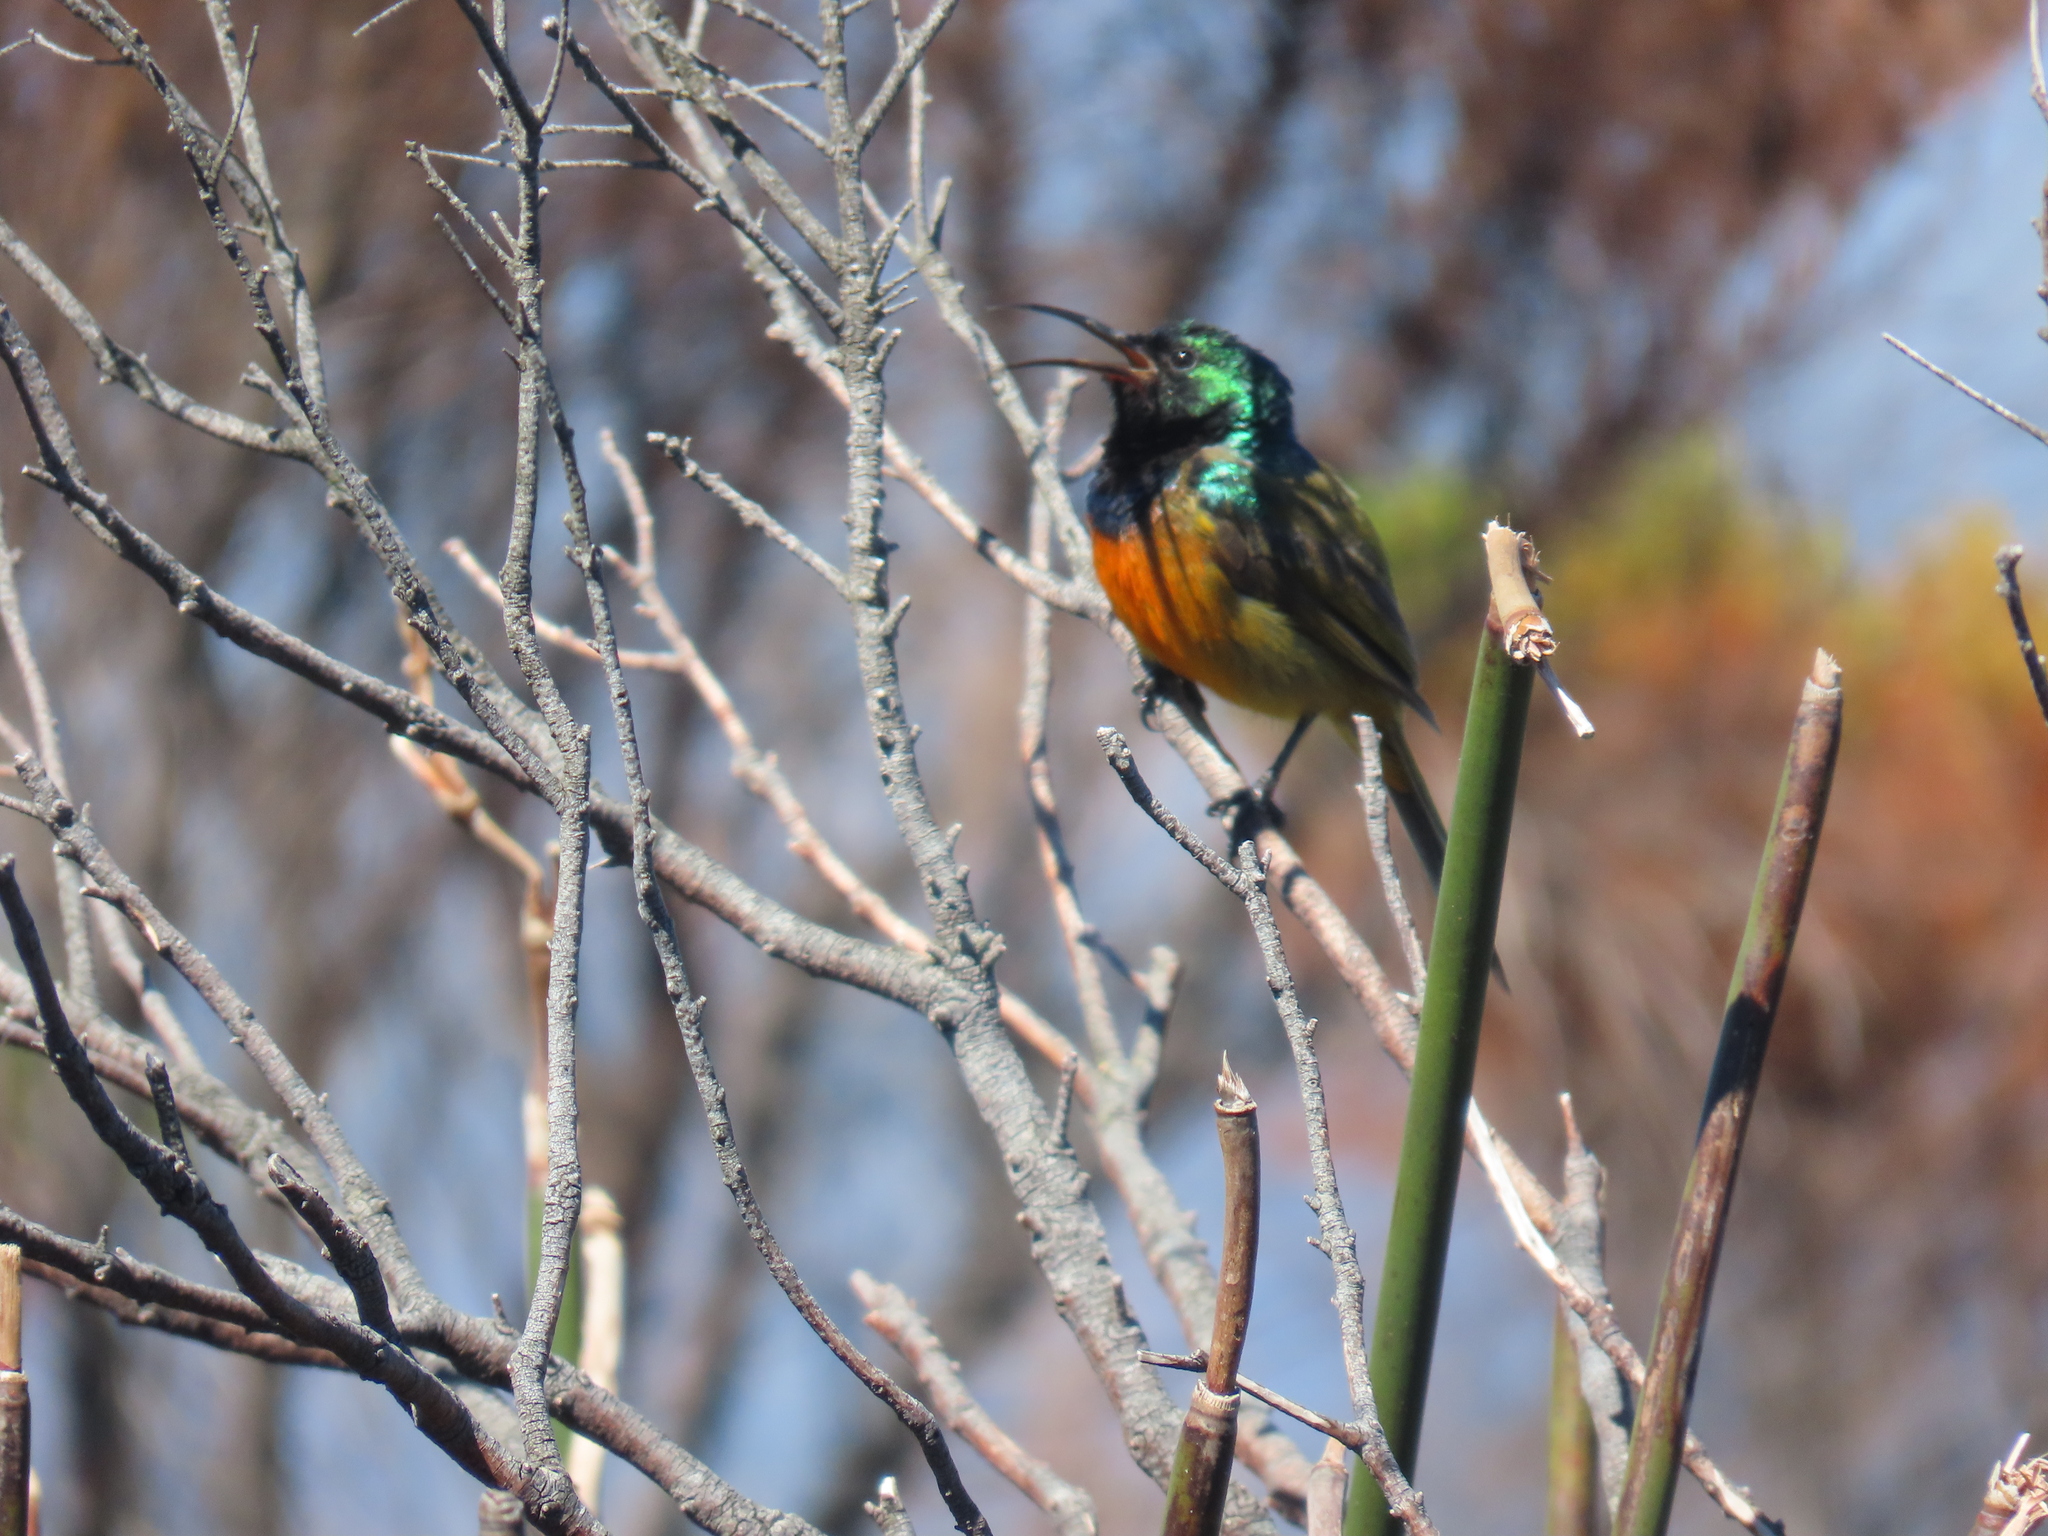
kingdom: Animalia
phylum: Chordata
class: Aves
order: Passeriformes
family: Nectariniidae
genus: Anthobaphes
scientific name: Anthobaphes violacea
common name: Orange-breasted sunbird
